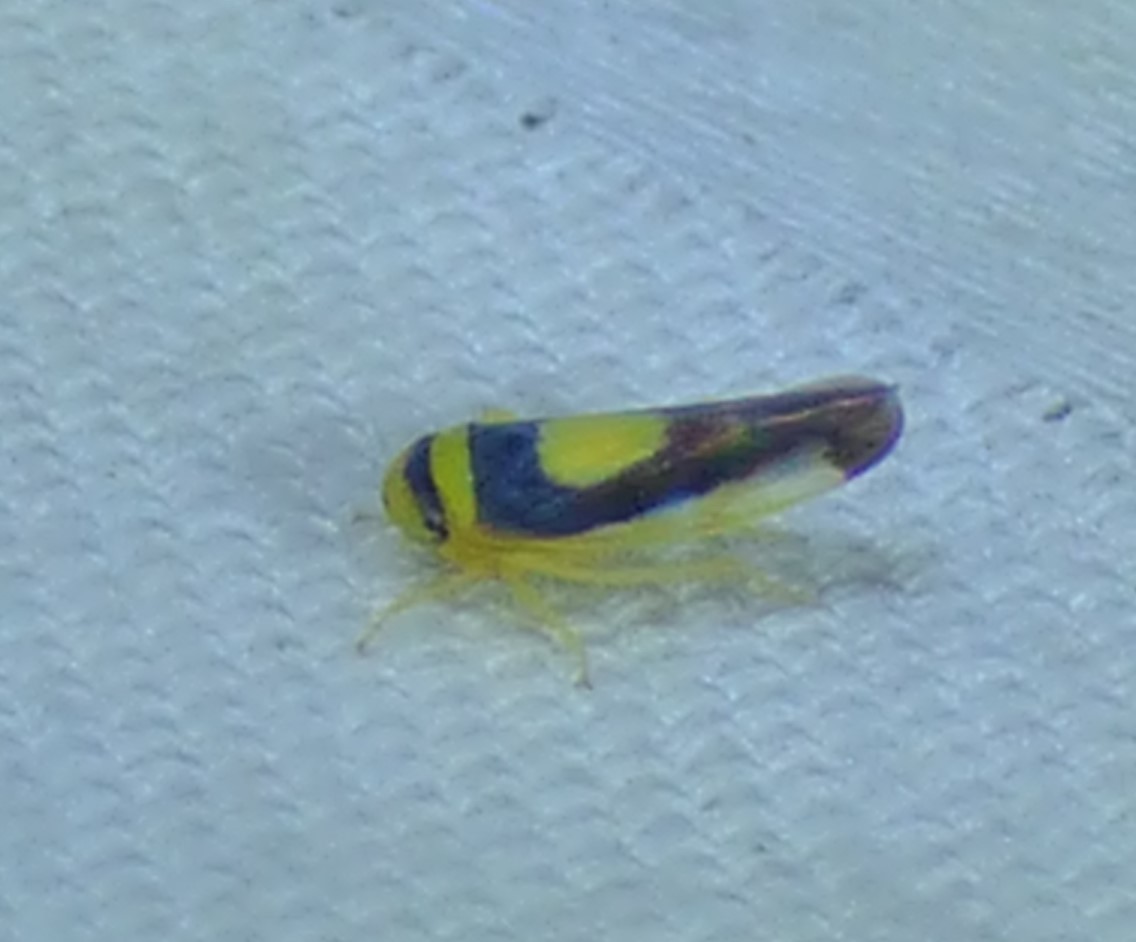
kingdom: Animalia
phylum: Arthropoda
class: Insecta
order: Hemiptera
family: Cicadellidae
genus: Colladonus
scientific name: Colladonus clitellarius
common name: The saddleback leafhopper
